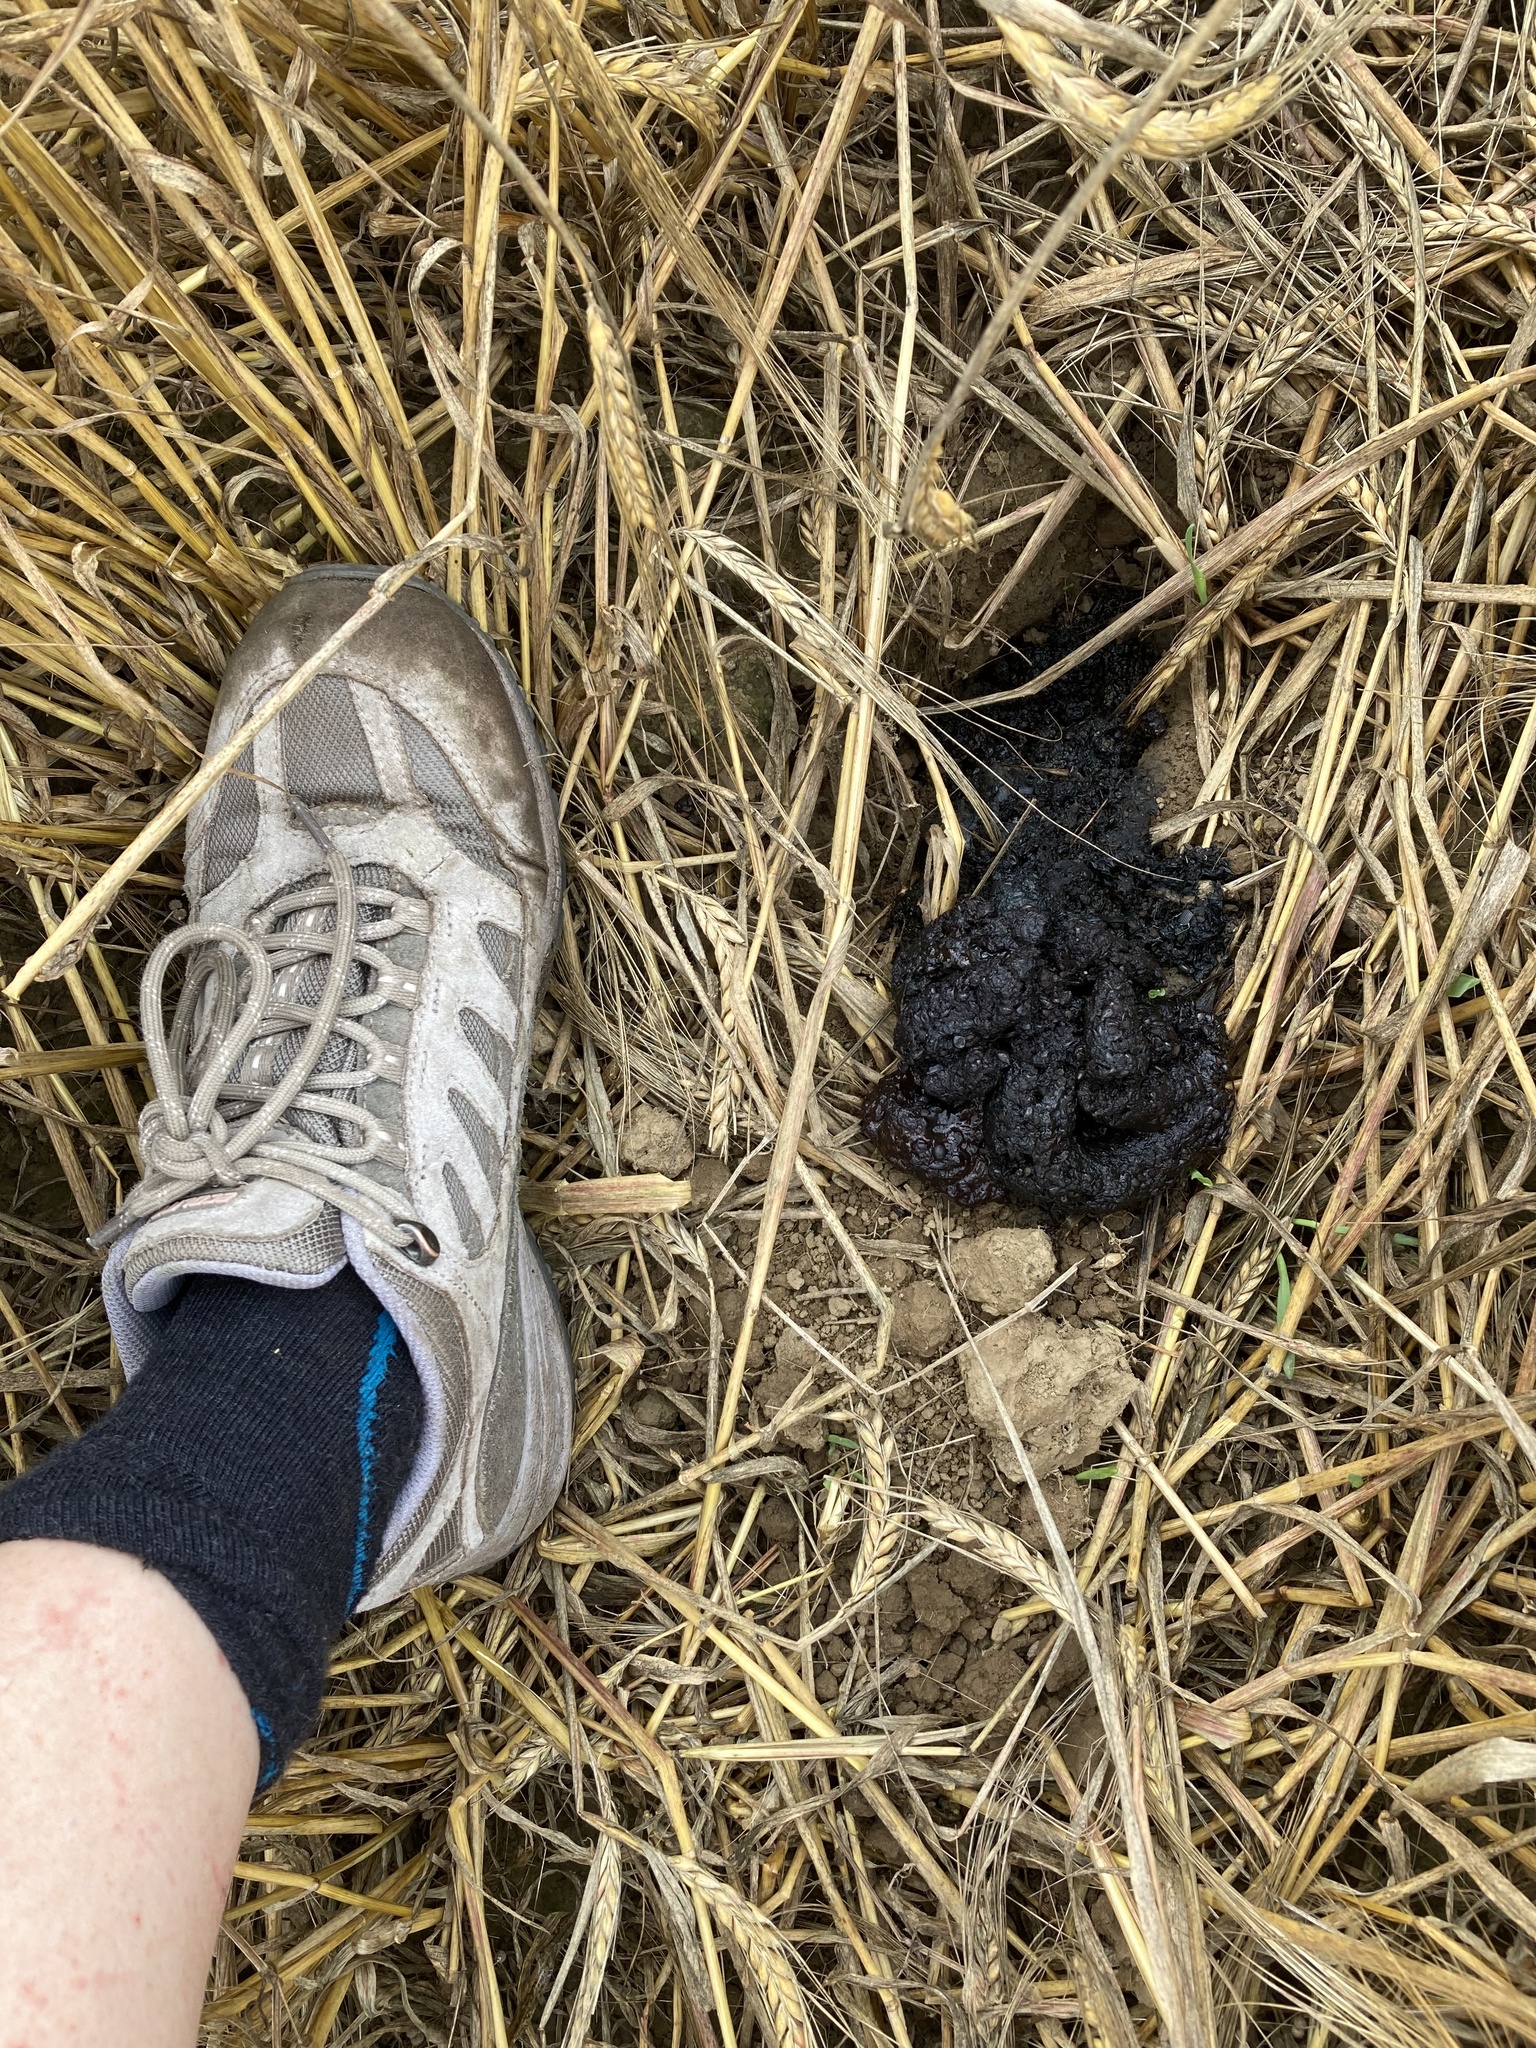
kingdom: Animalia
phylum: Chordata
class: Mammalia
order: Carnivora
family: Mustelidae
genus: Meles
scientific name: Meles meles
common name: Eurasian badger
